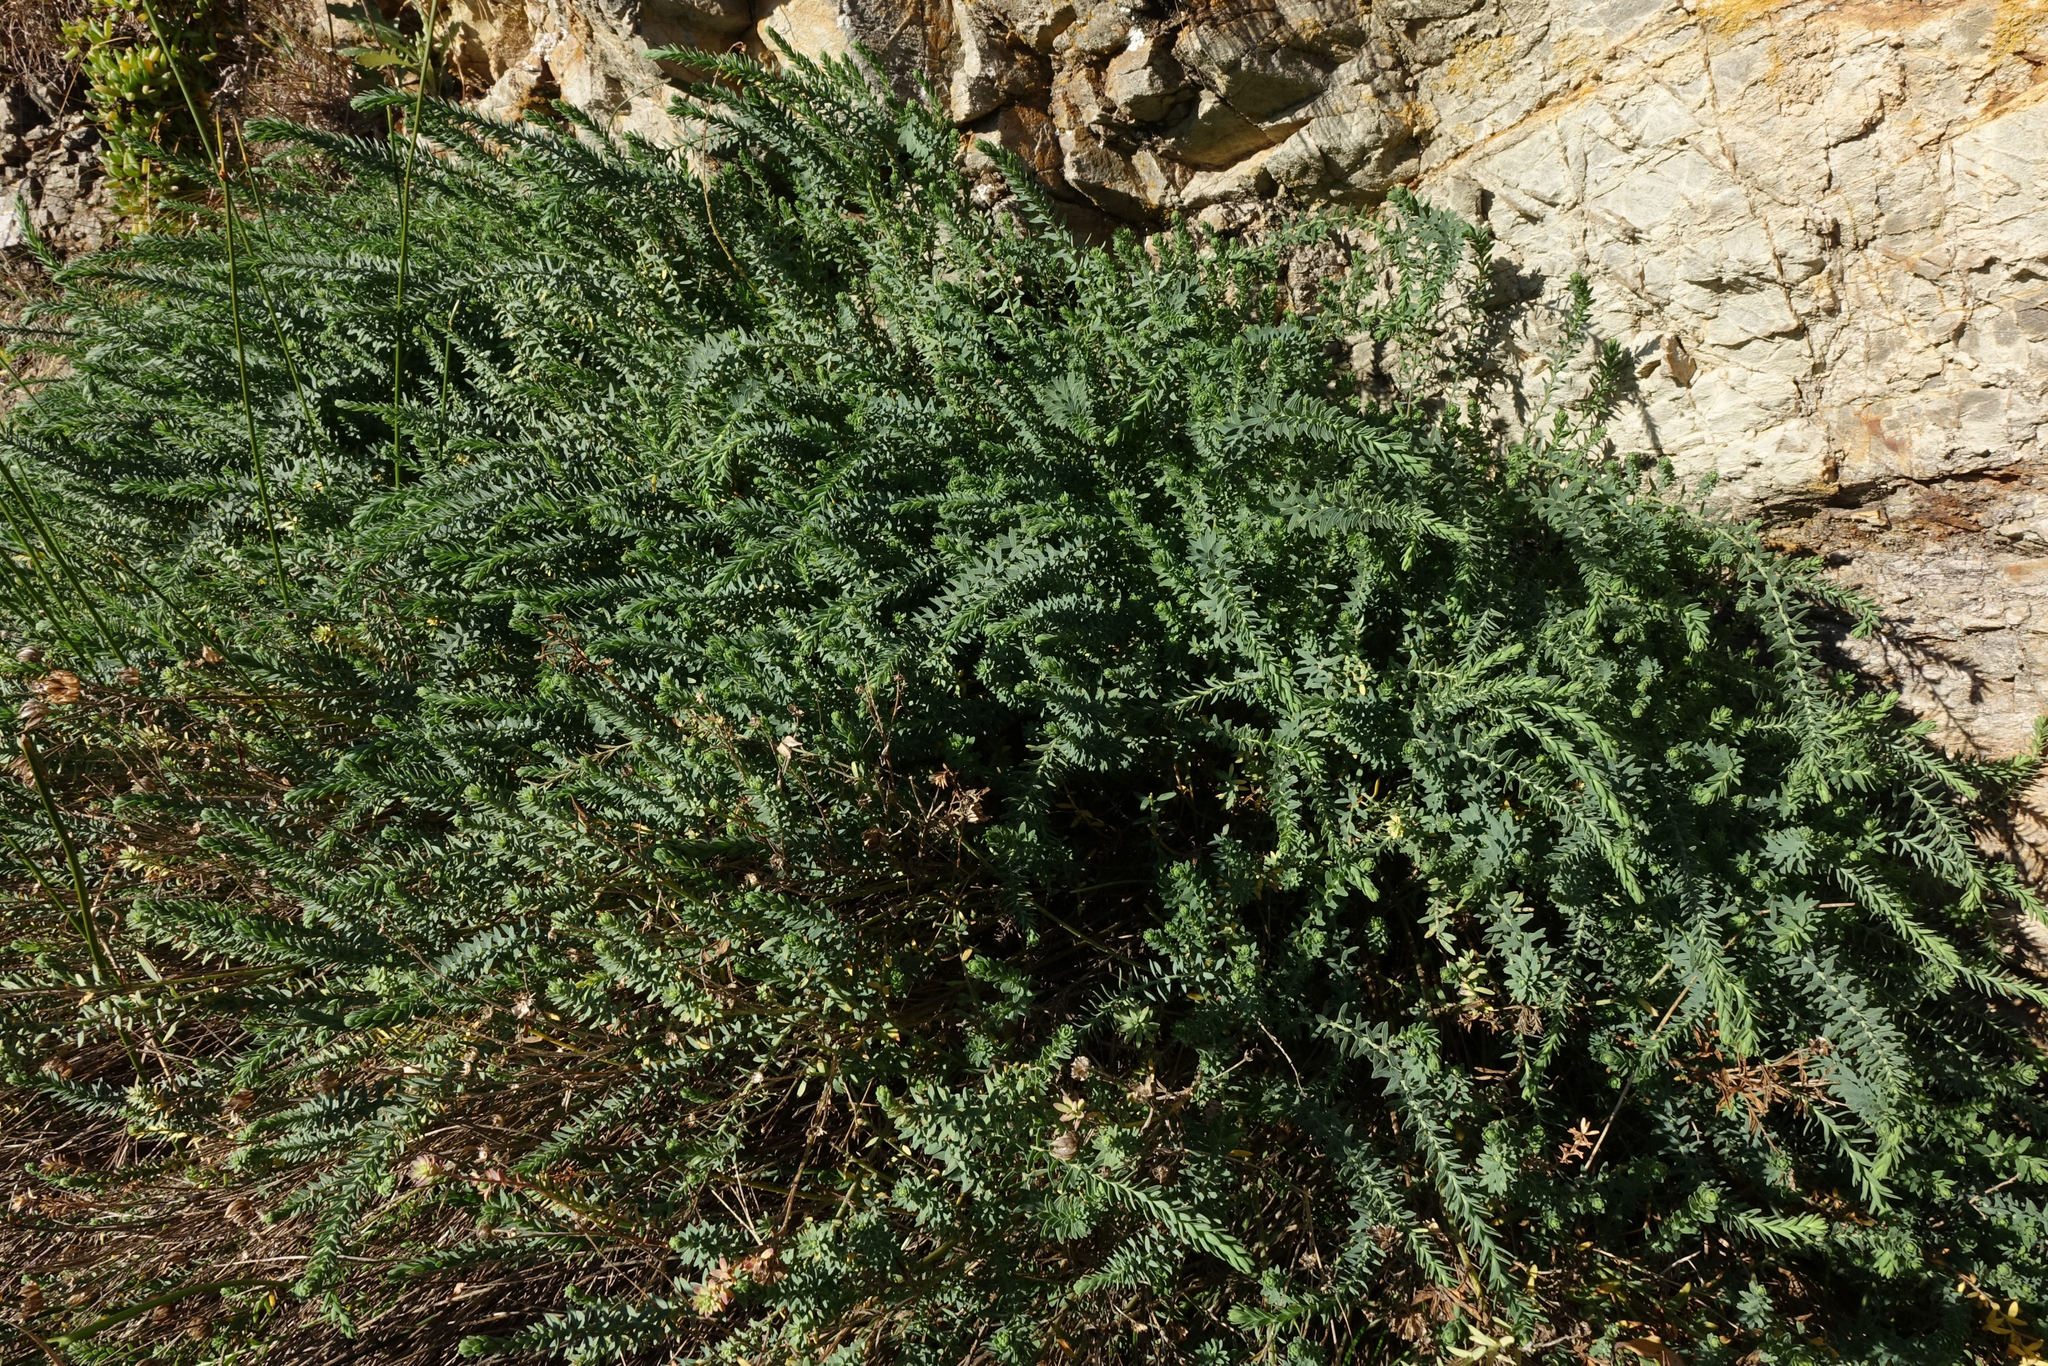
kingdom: Plantae
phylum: Tracheophyta
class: Magnoliopsida
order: Malpighiales
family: Linaceae
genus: Linum
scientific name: Linum monogynum
